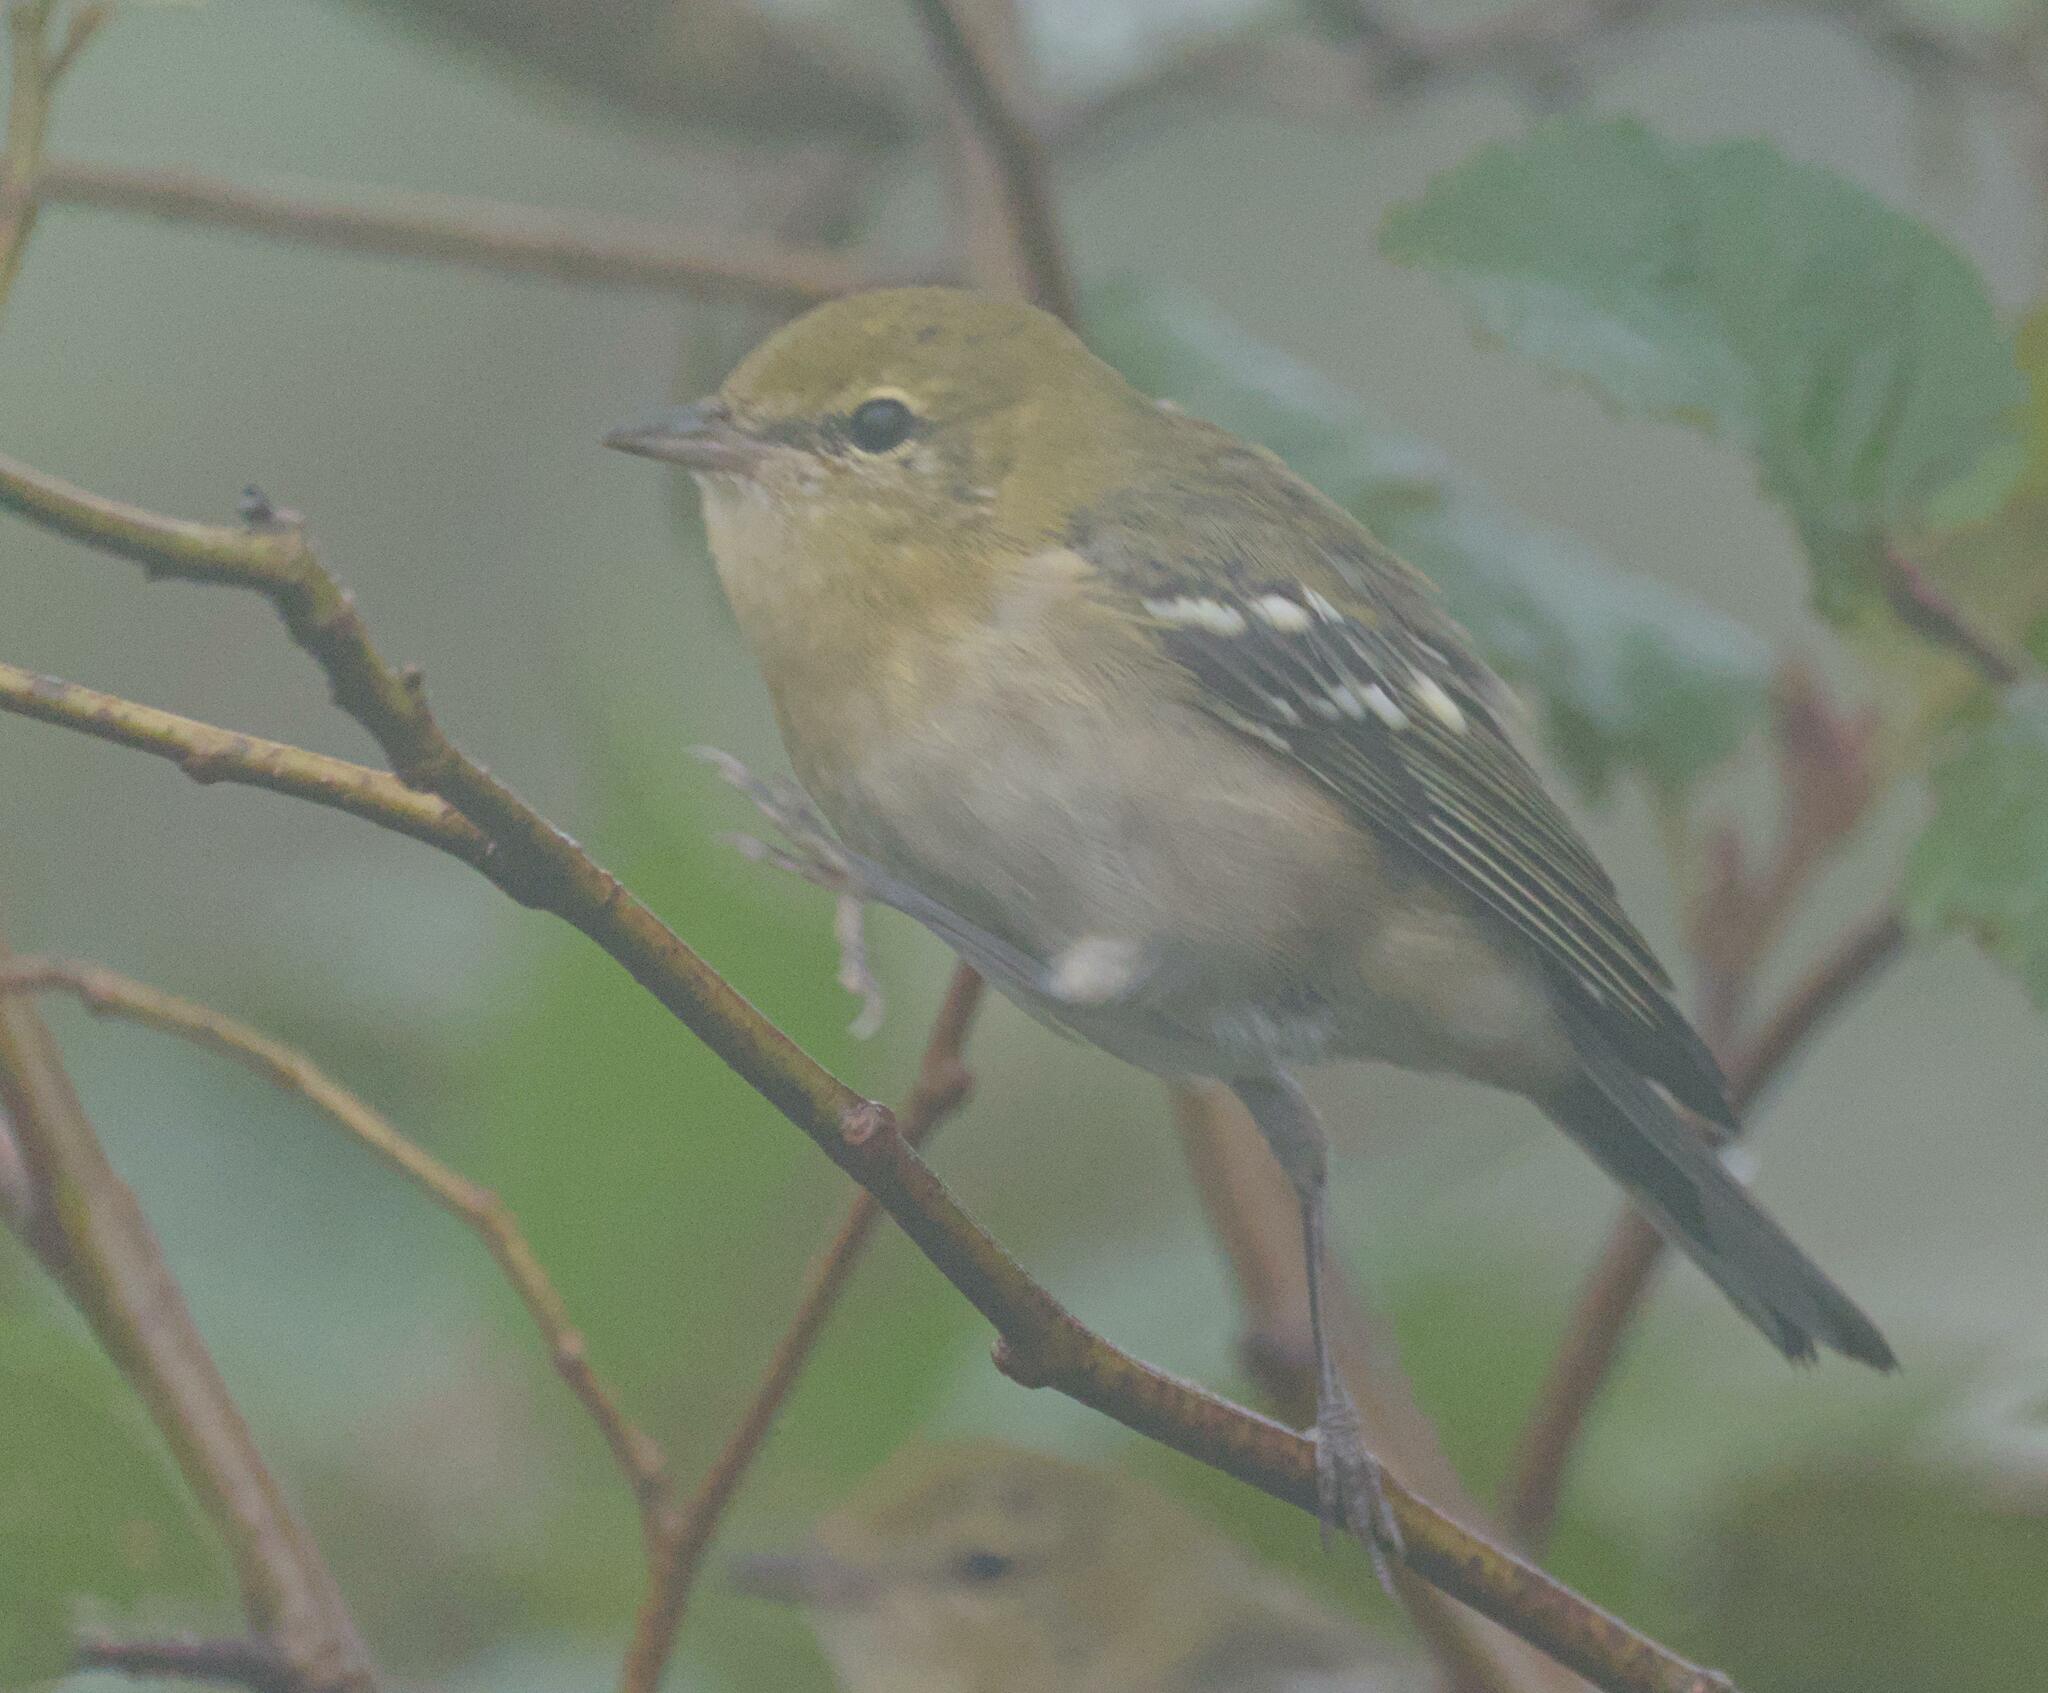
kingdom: Animalia
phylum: Chordata
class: Aves
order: Passeriformes
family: Parulidae
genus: Setophaga
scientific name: Setophaga castanea
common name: Bay-breasted warbler
